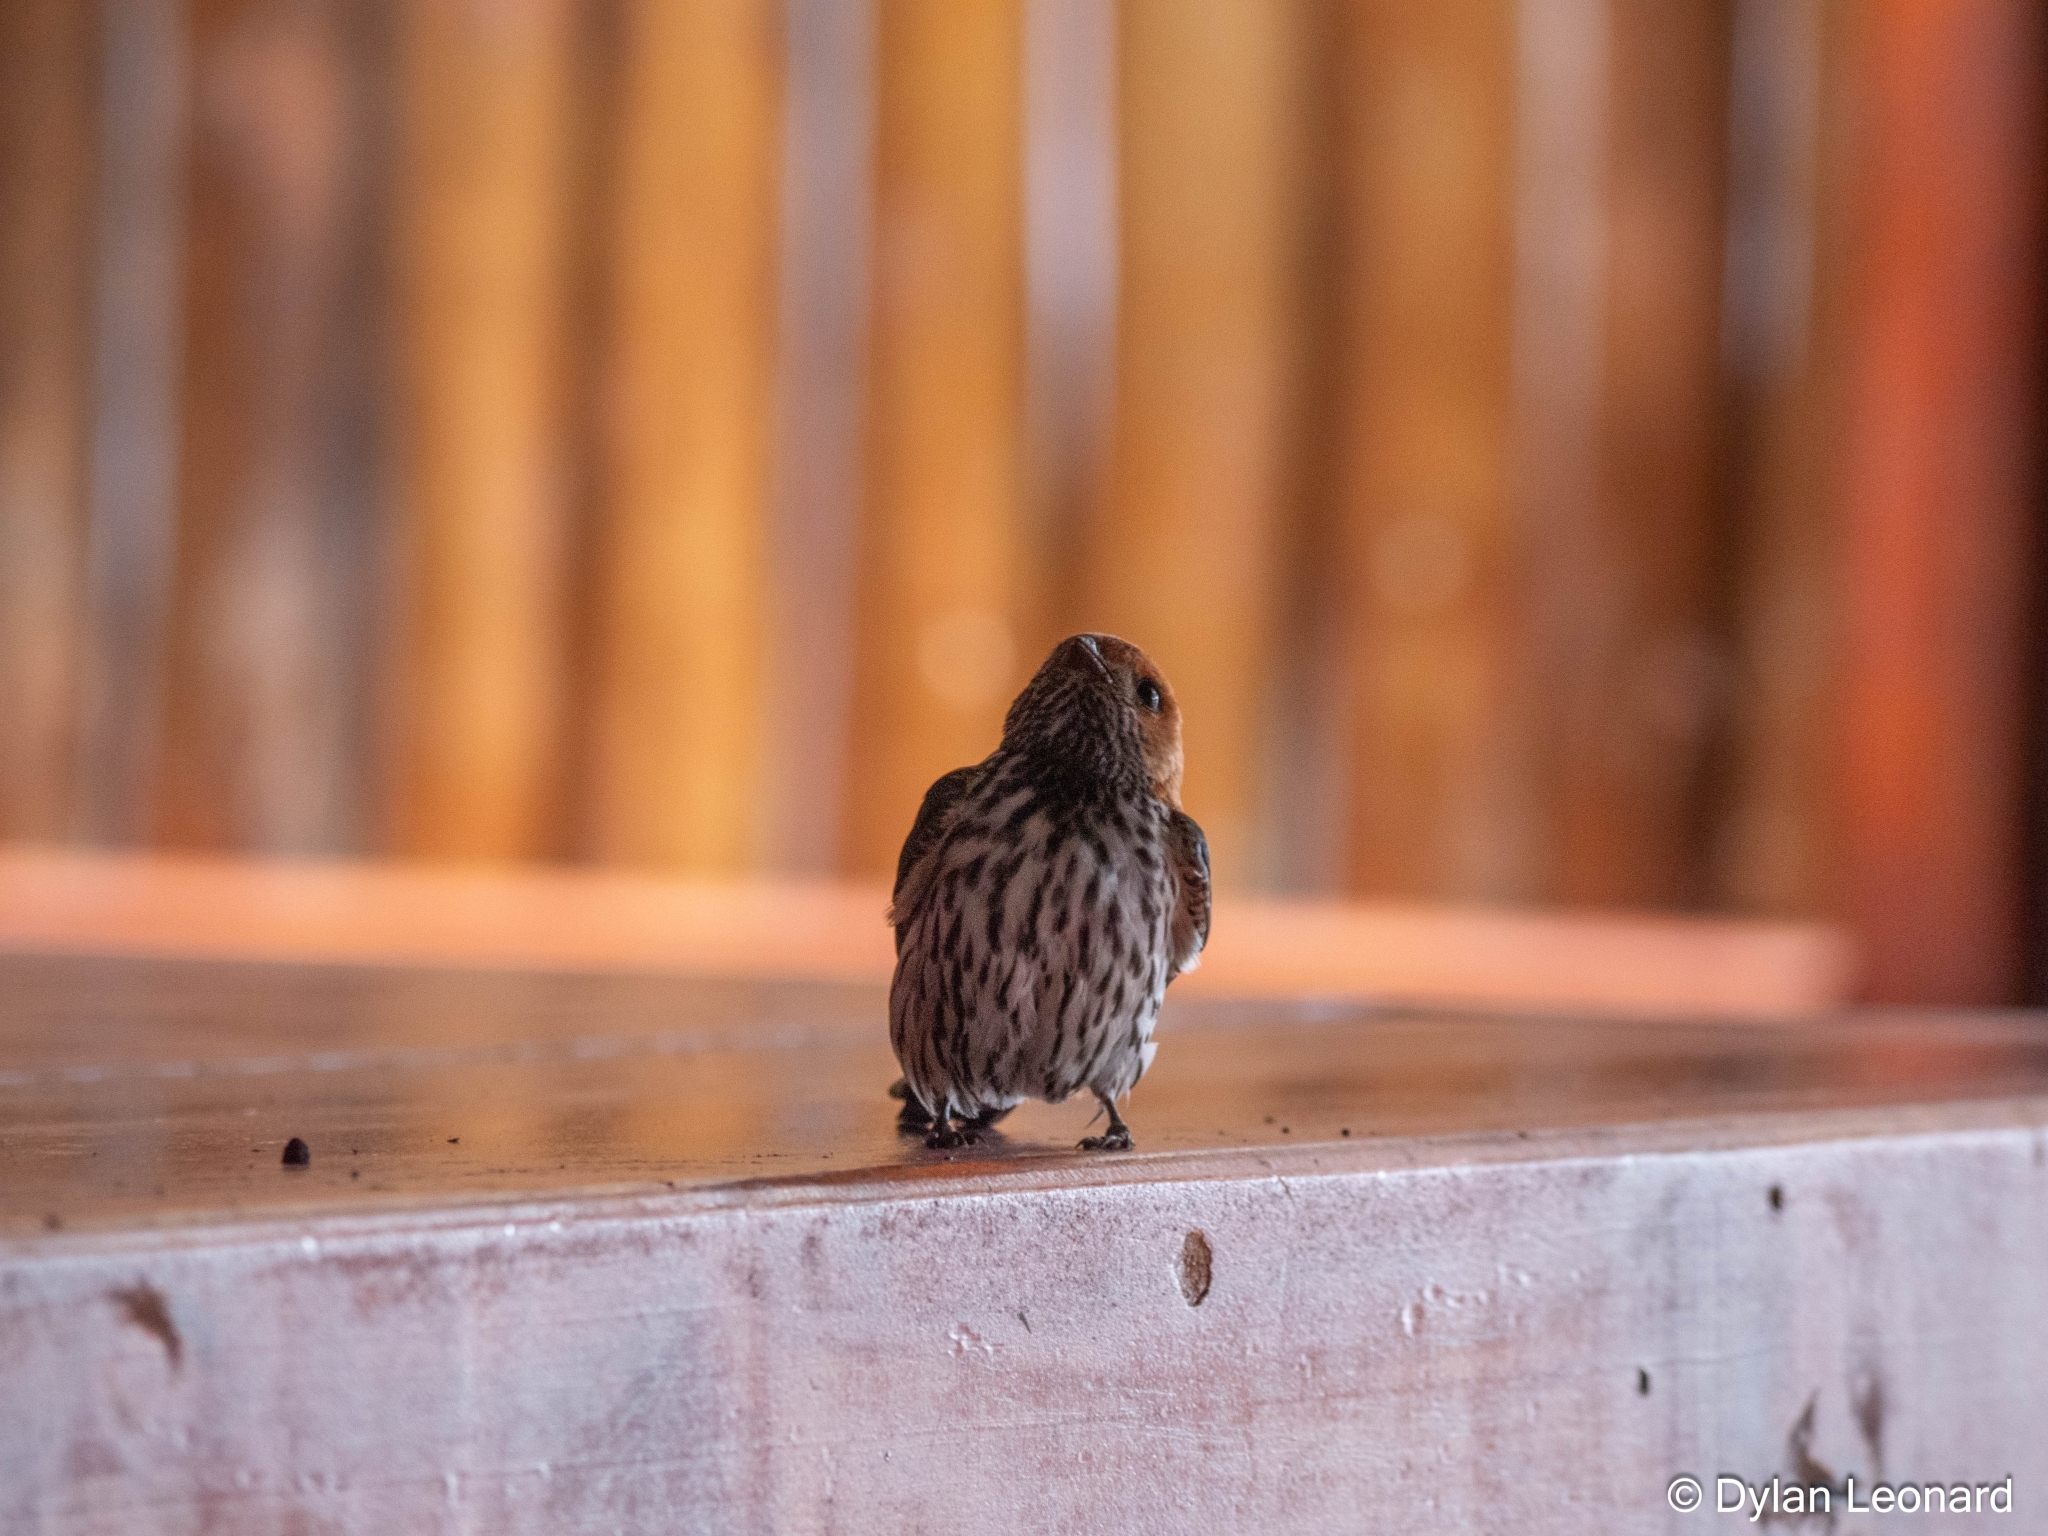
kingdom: Animalia
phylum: Chordata
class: Aves
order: Passeriformes
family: Hirundinidae
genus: Cecropis
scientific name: Cecropis abyssinica
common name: Lesser striped-swallow
